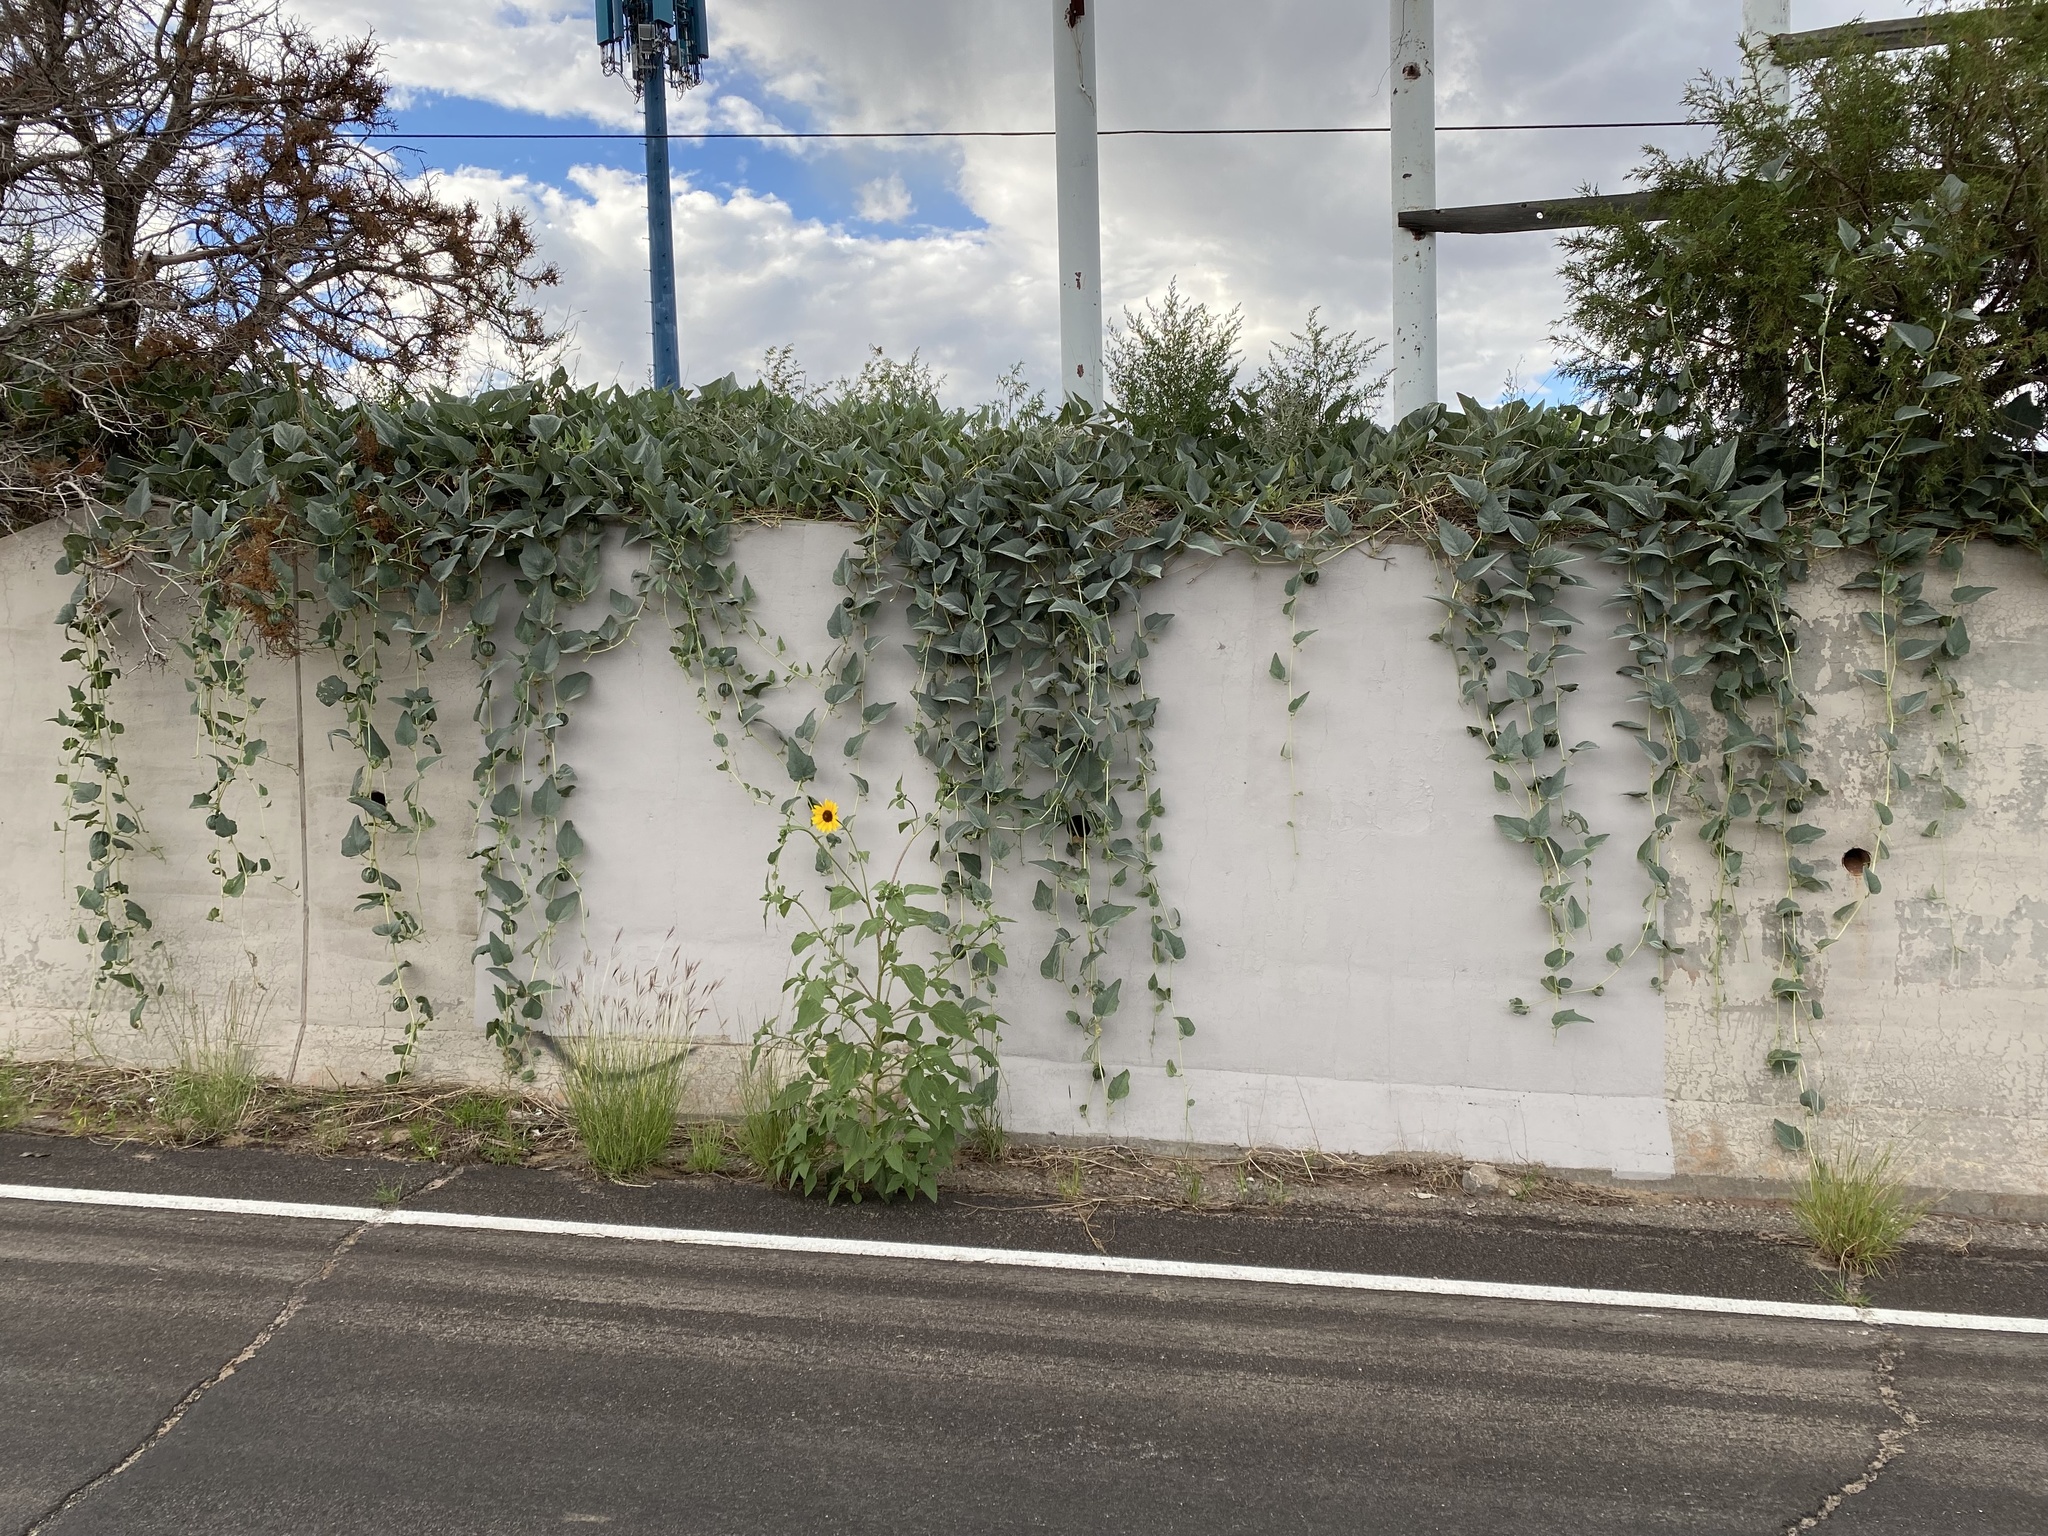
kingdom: Plantae
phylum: Tracheophyta
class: Magnoliopsida
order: Asterales
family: Asteraceae
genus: Helianthus
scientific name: Helianthus annuus
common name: Sunflower
